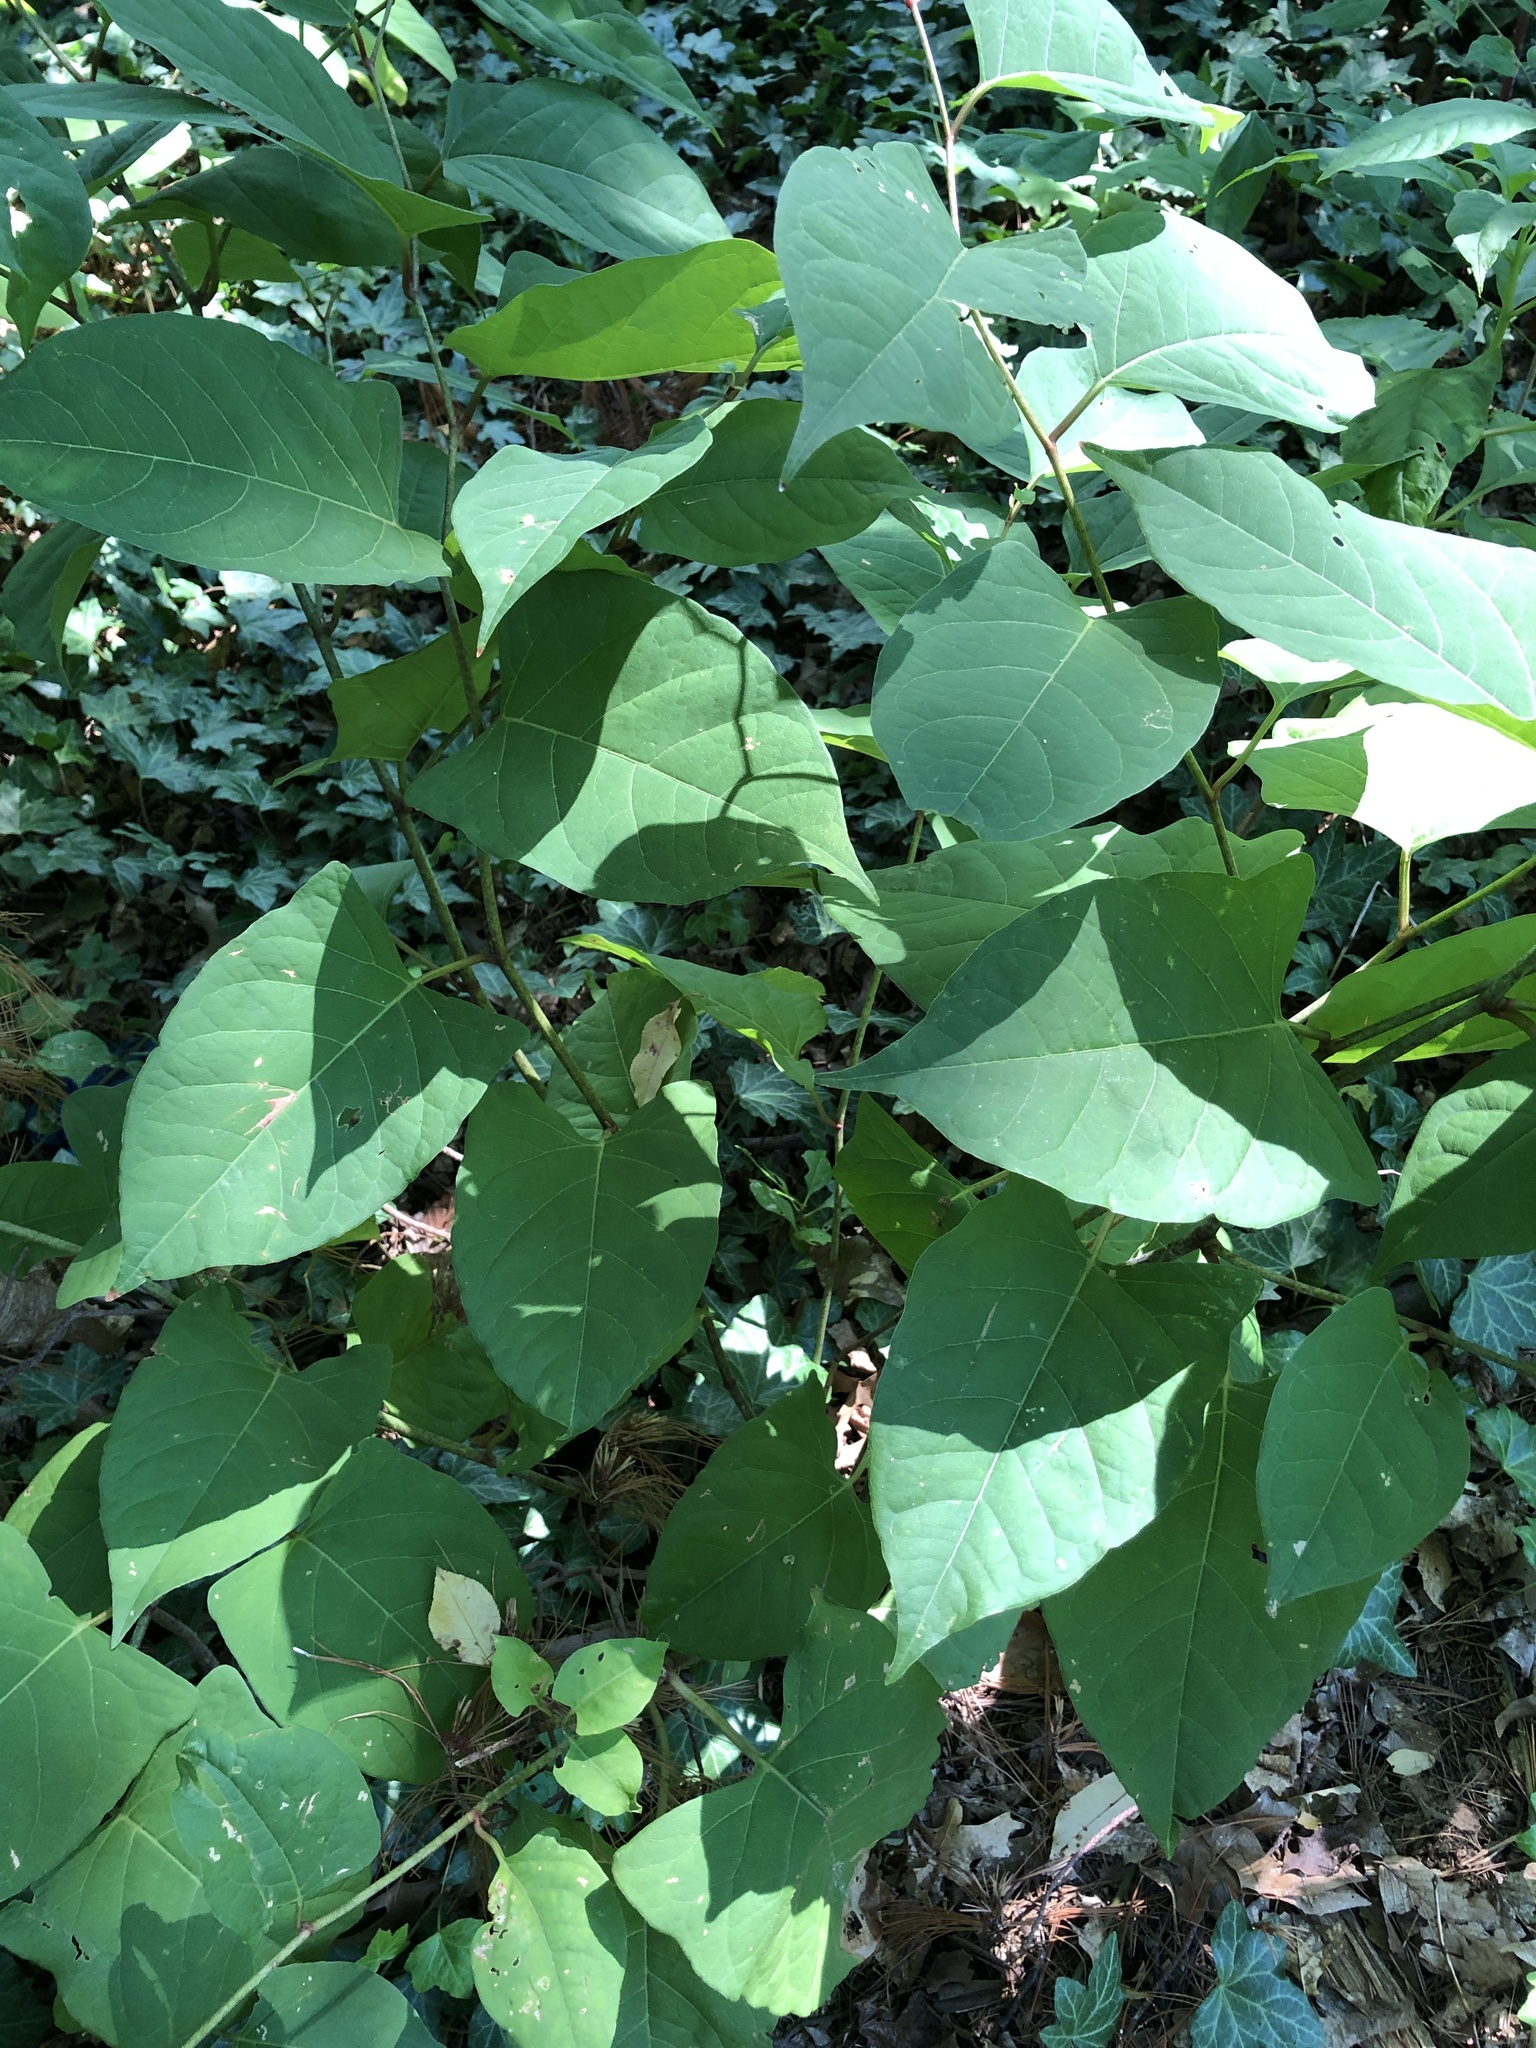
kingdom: Plantae
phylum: Tracheophyta
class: Magnoliopsida
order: Caryophyllales
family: Polygonaceae
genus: Reynoutria
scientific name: Reynoutria japonica
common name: Japanese knotweed
